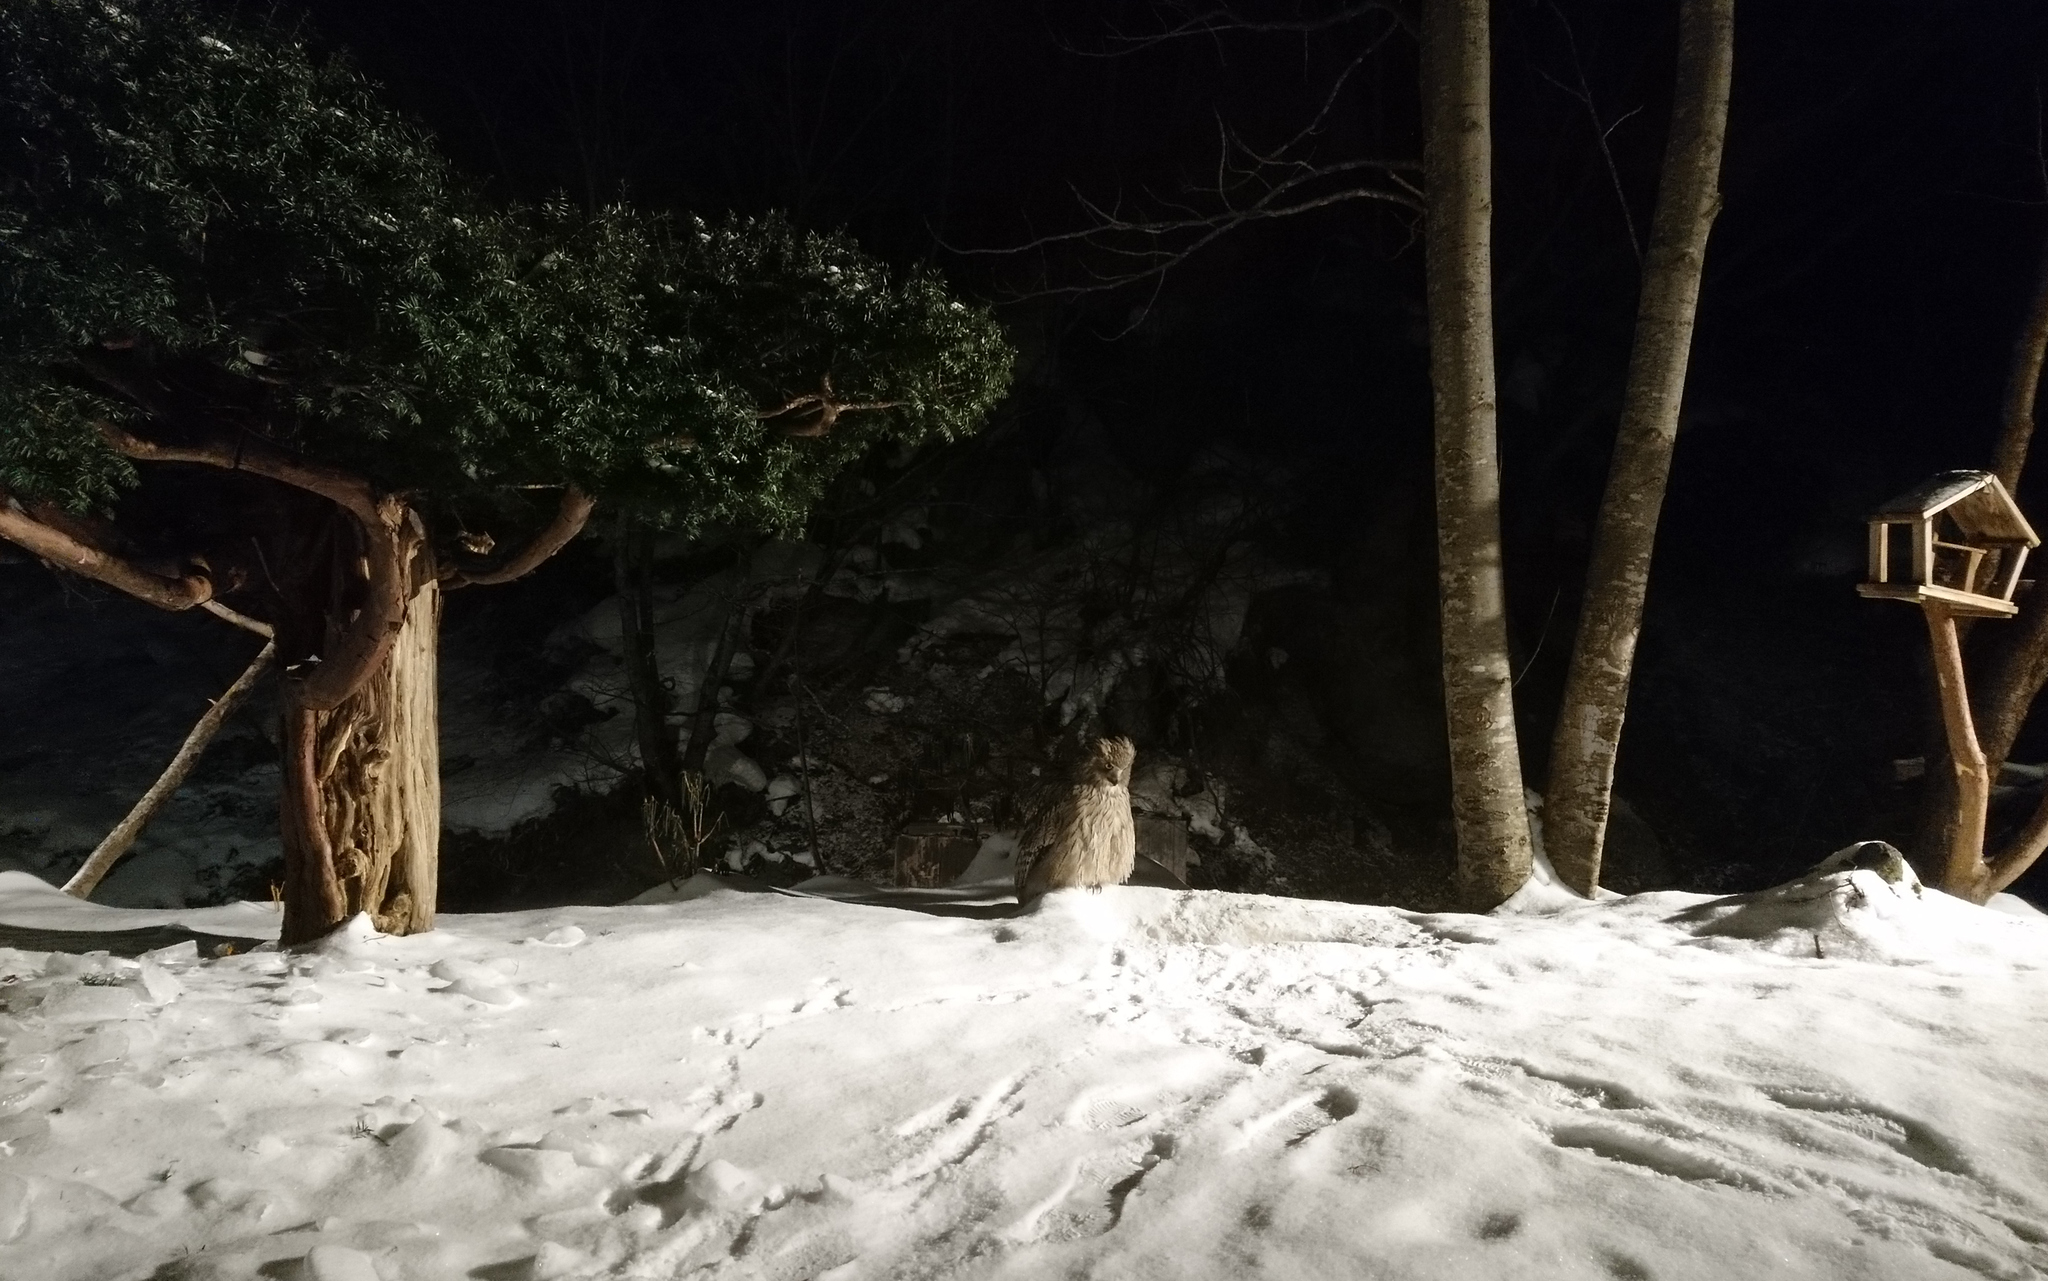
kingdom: Animalia
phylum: Chordata
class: Aves
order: Strigiformes
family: Strigidae
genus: Bubo
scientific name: Bubo blakistoni
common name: Blakiston's fish owl
